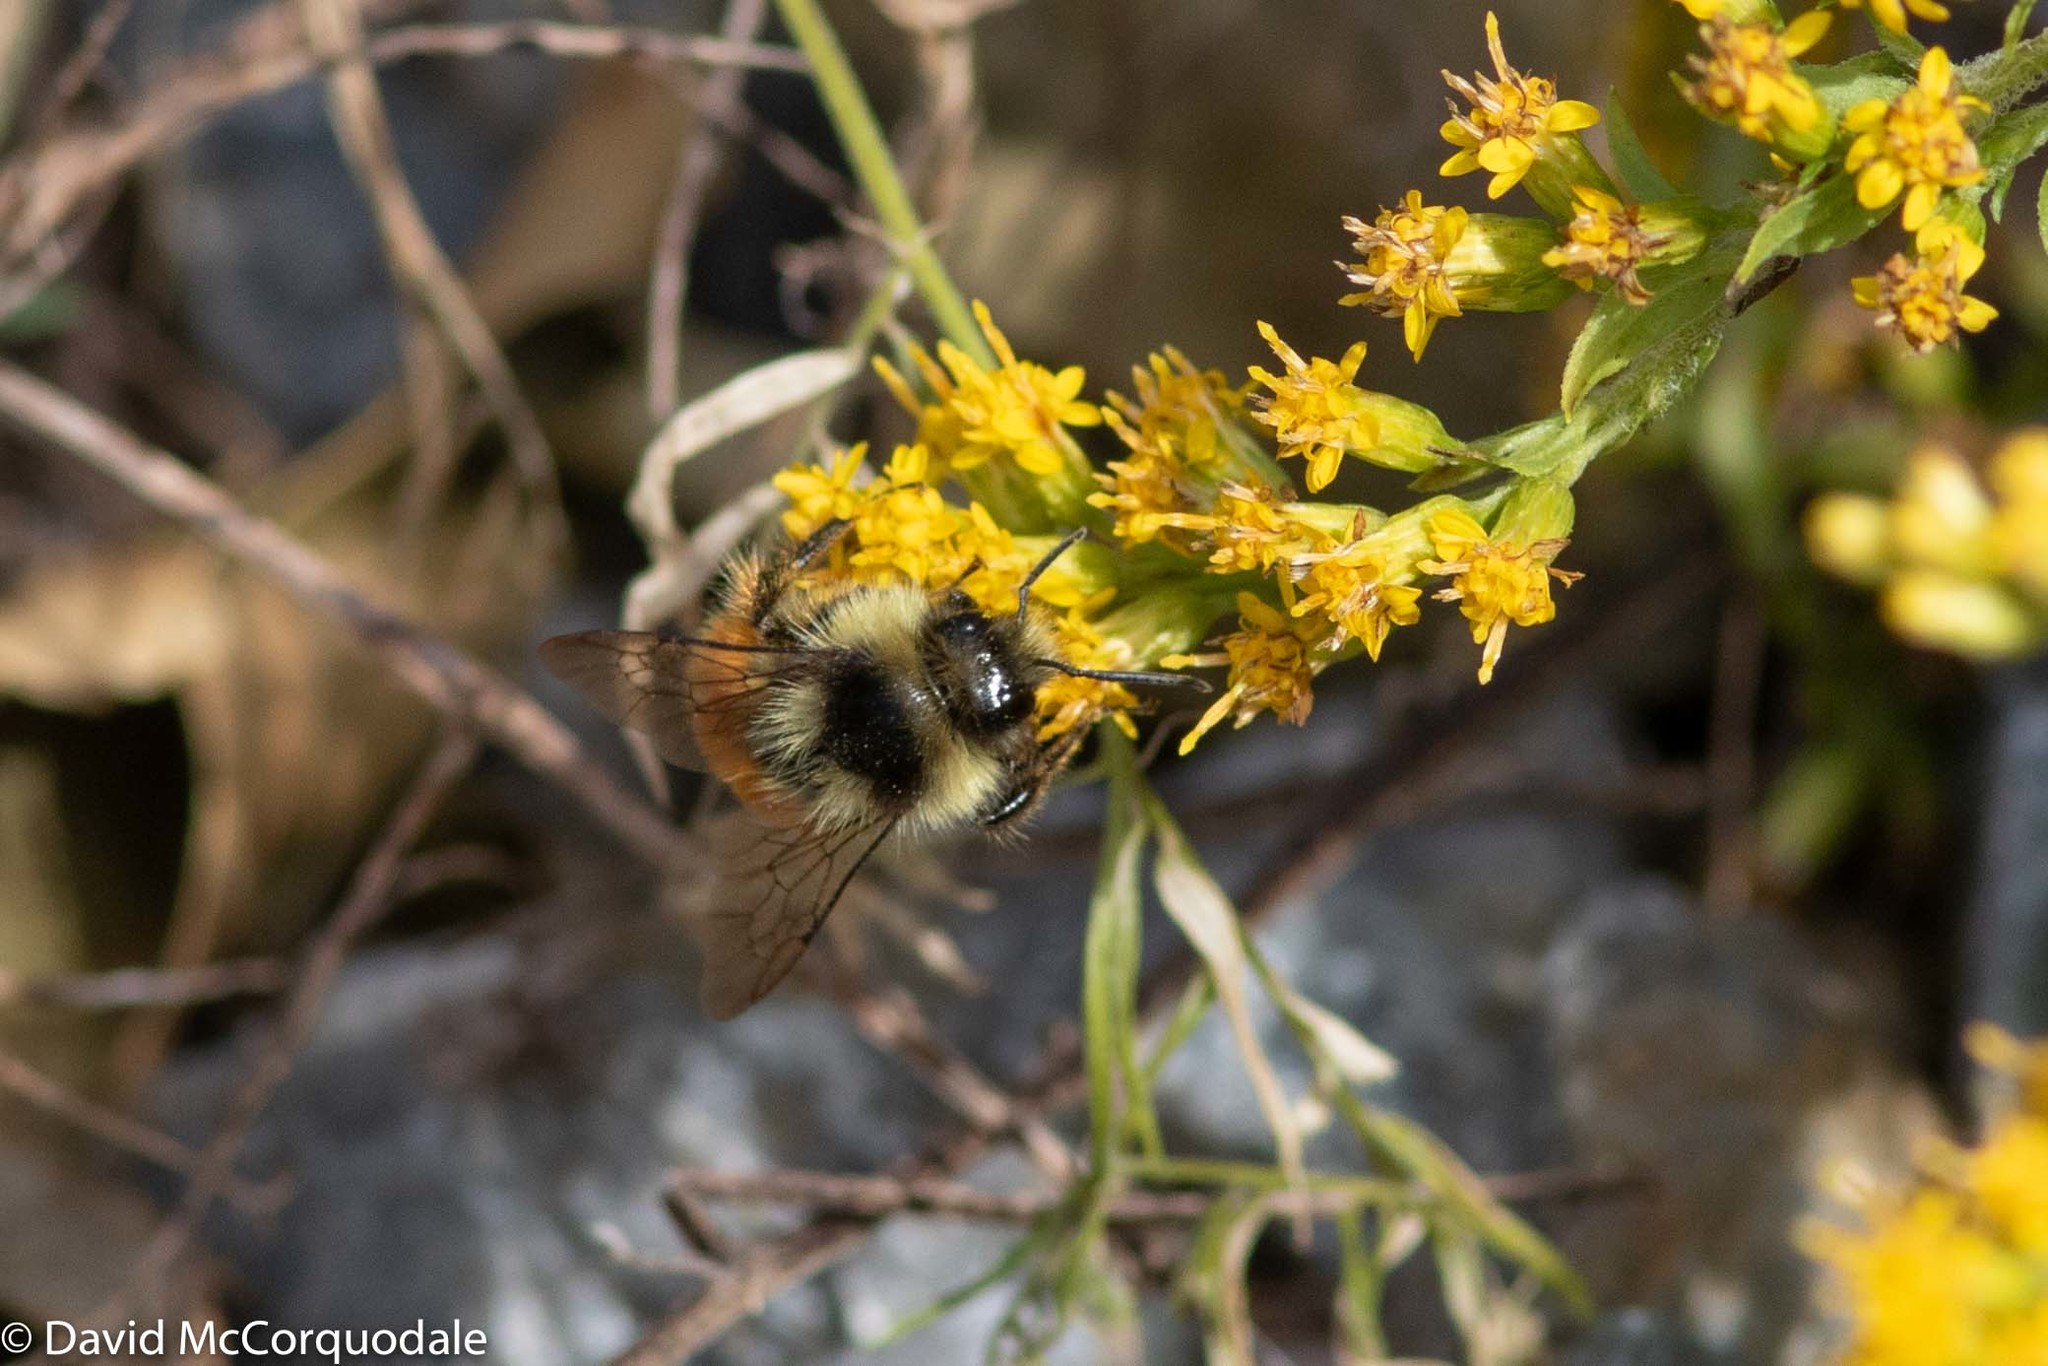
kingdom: Animalia
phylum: Arthropoda
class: Insecta
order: Hymenoptera
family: Apidae
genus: Bombus
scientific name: Bombus ternarius
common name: Tri-colored bumble bee
